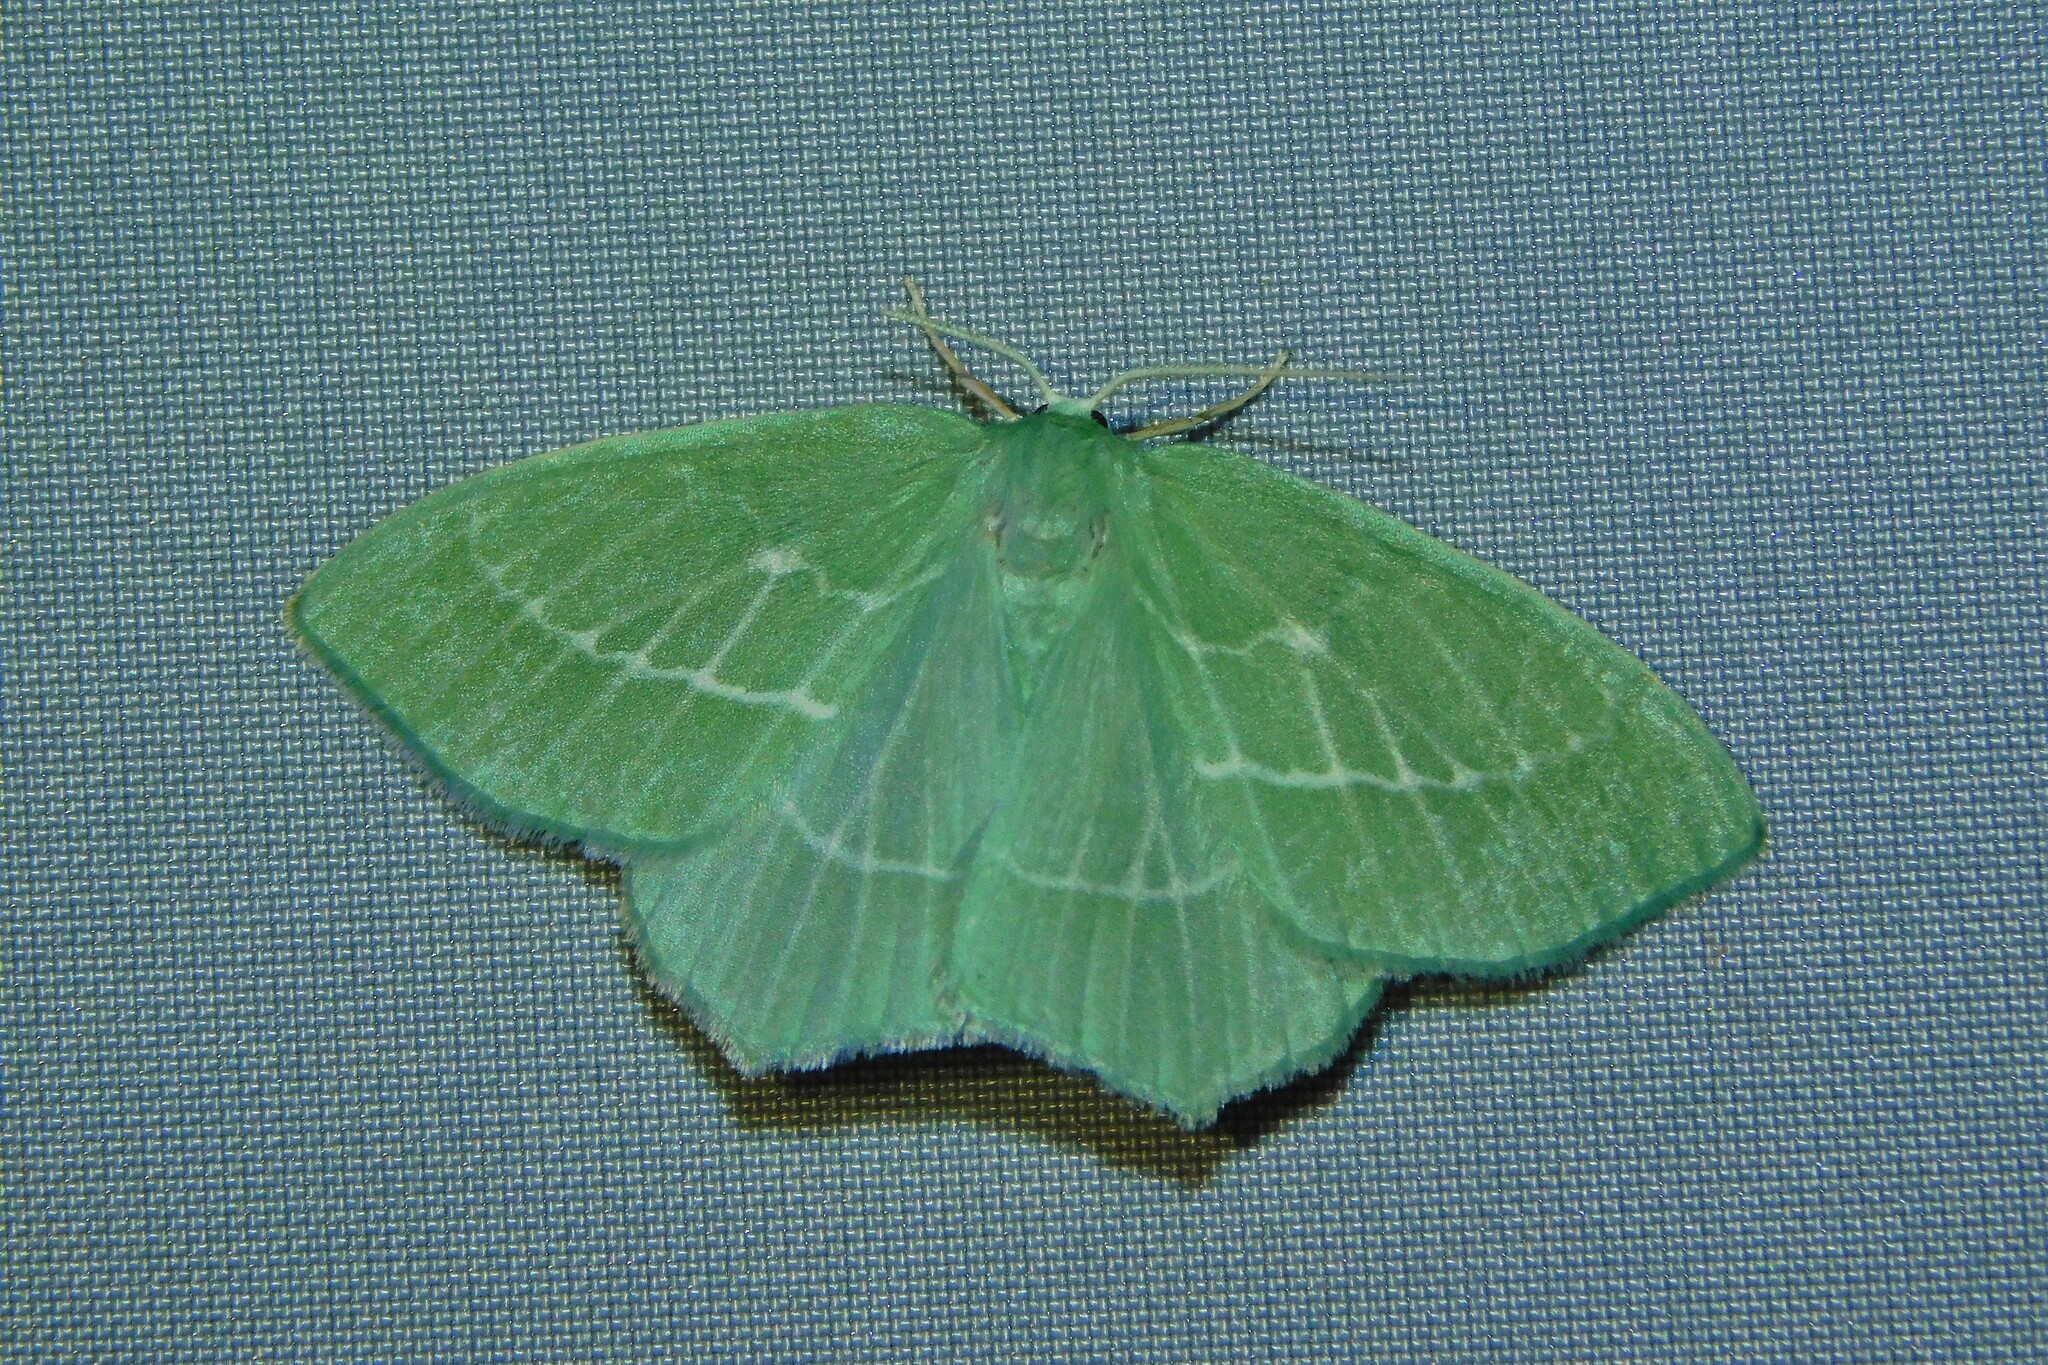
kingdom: Animalia
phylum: Arthropoda
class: Insecta
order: Lepidoptera
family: Geometridae
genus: Hemistola
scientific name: Hemistola chrysoprasaria
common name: Small emerald
